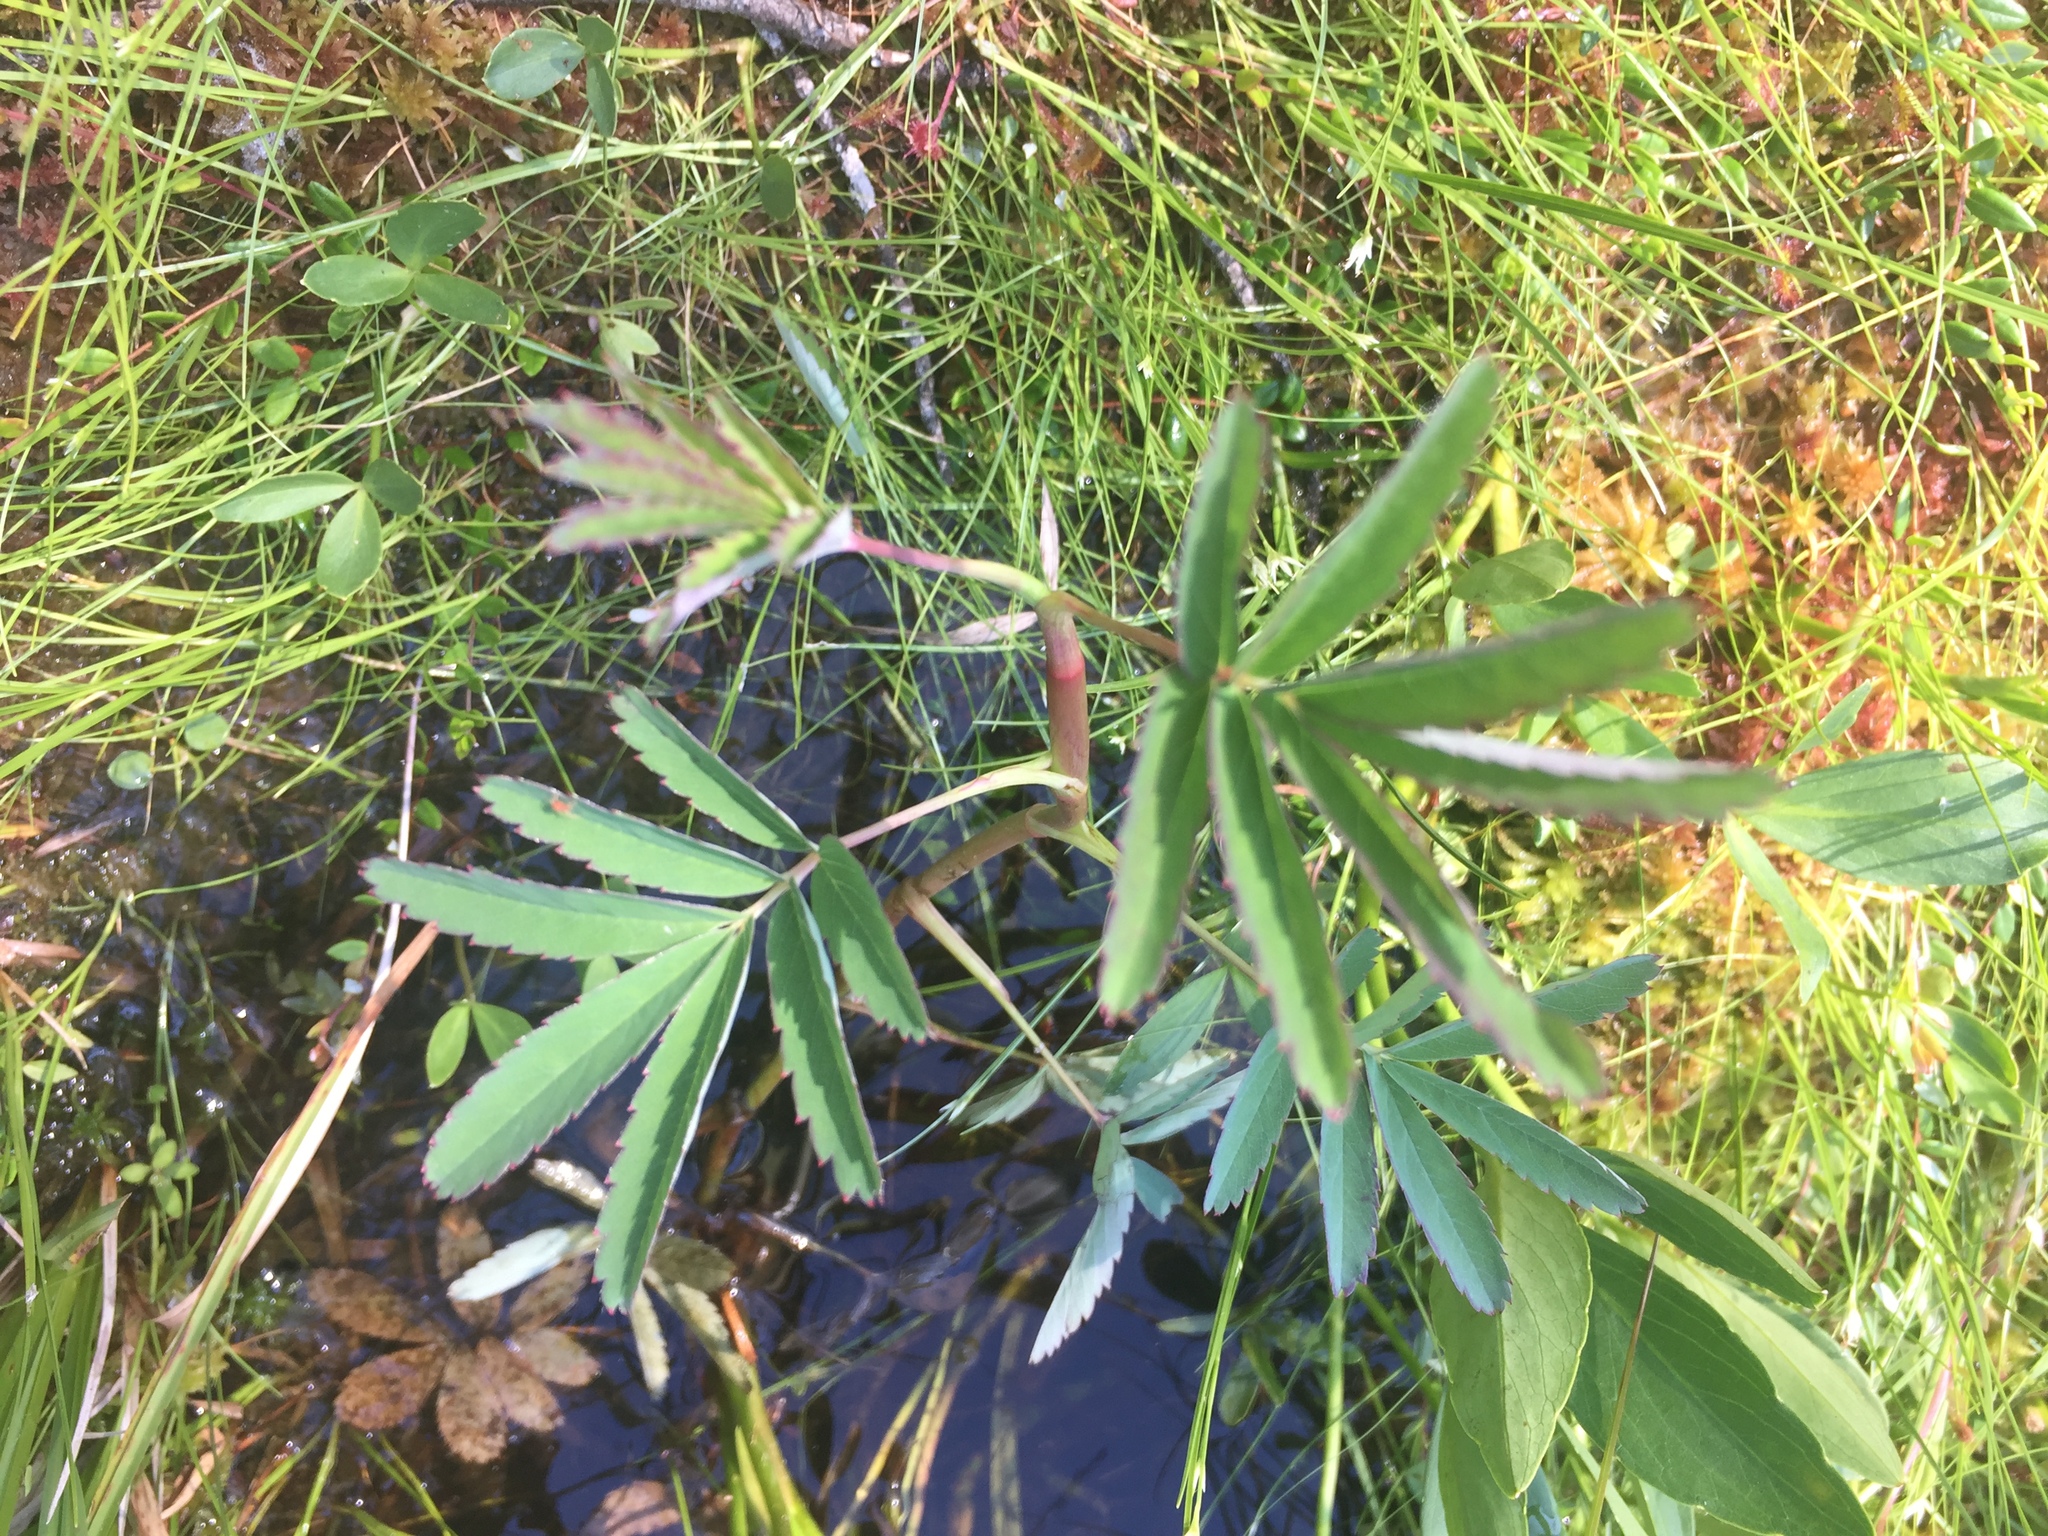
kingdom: Plantae
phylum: Tracheophyta
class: Magnoliopsida
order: Rosales
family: Rosaceae
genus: Comarum
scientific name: Comarum palustre
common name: Marsh cinquefoil
